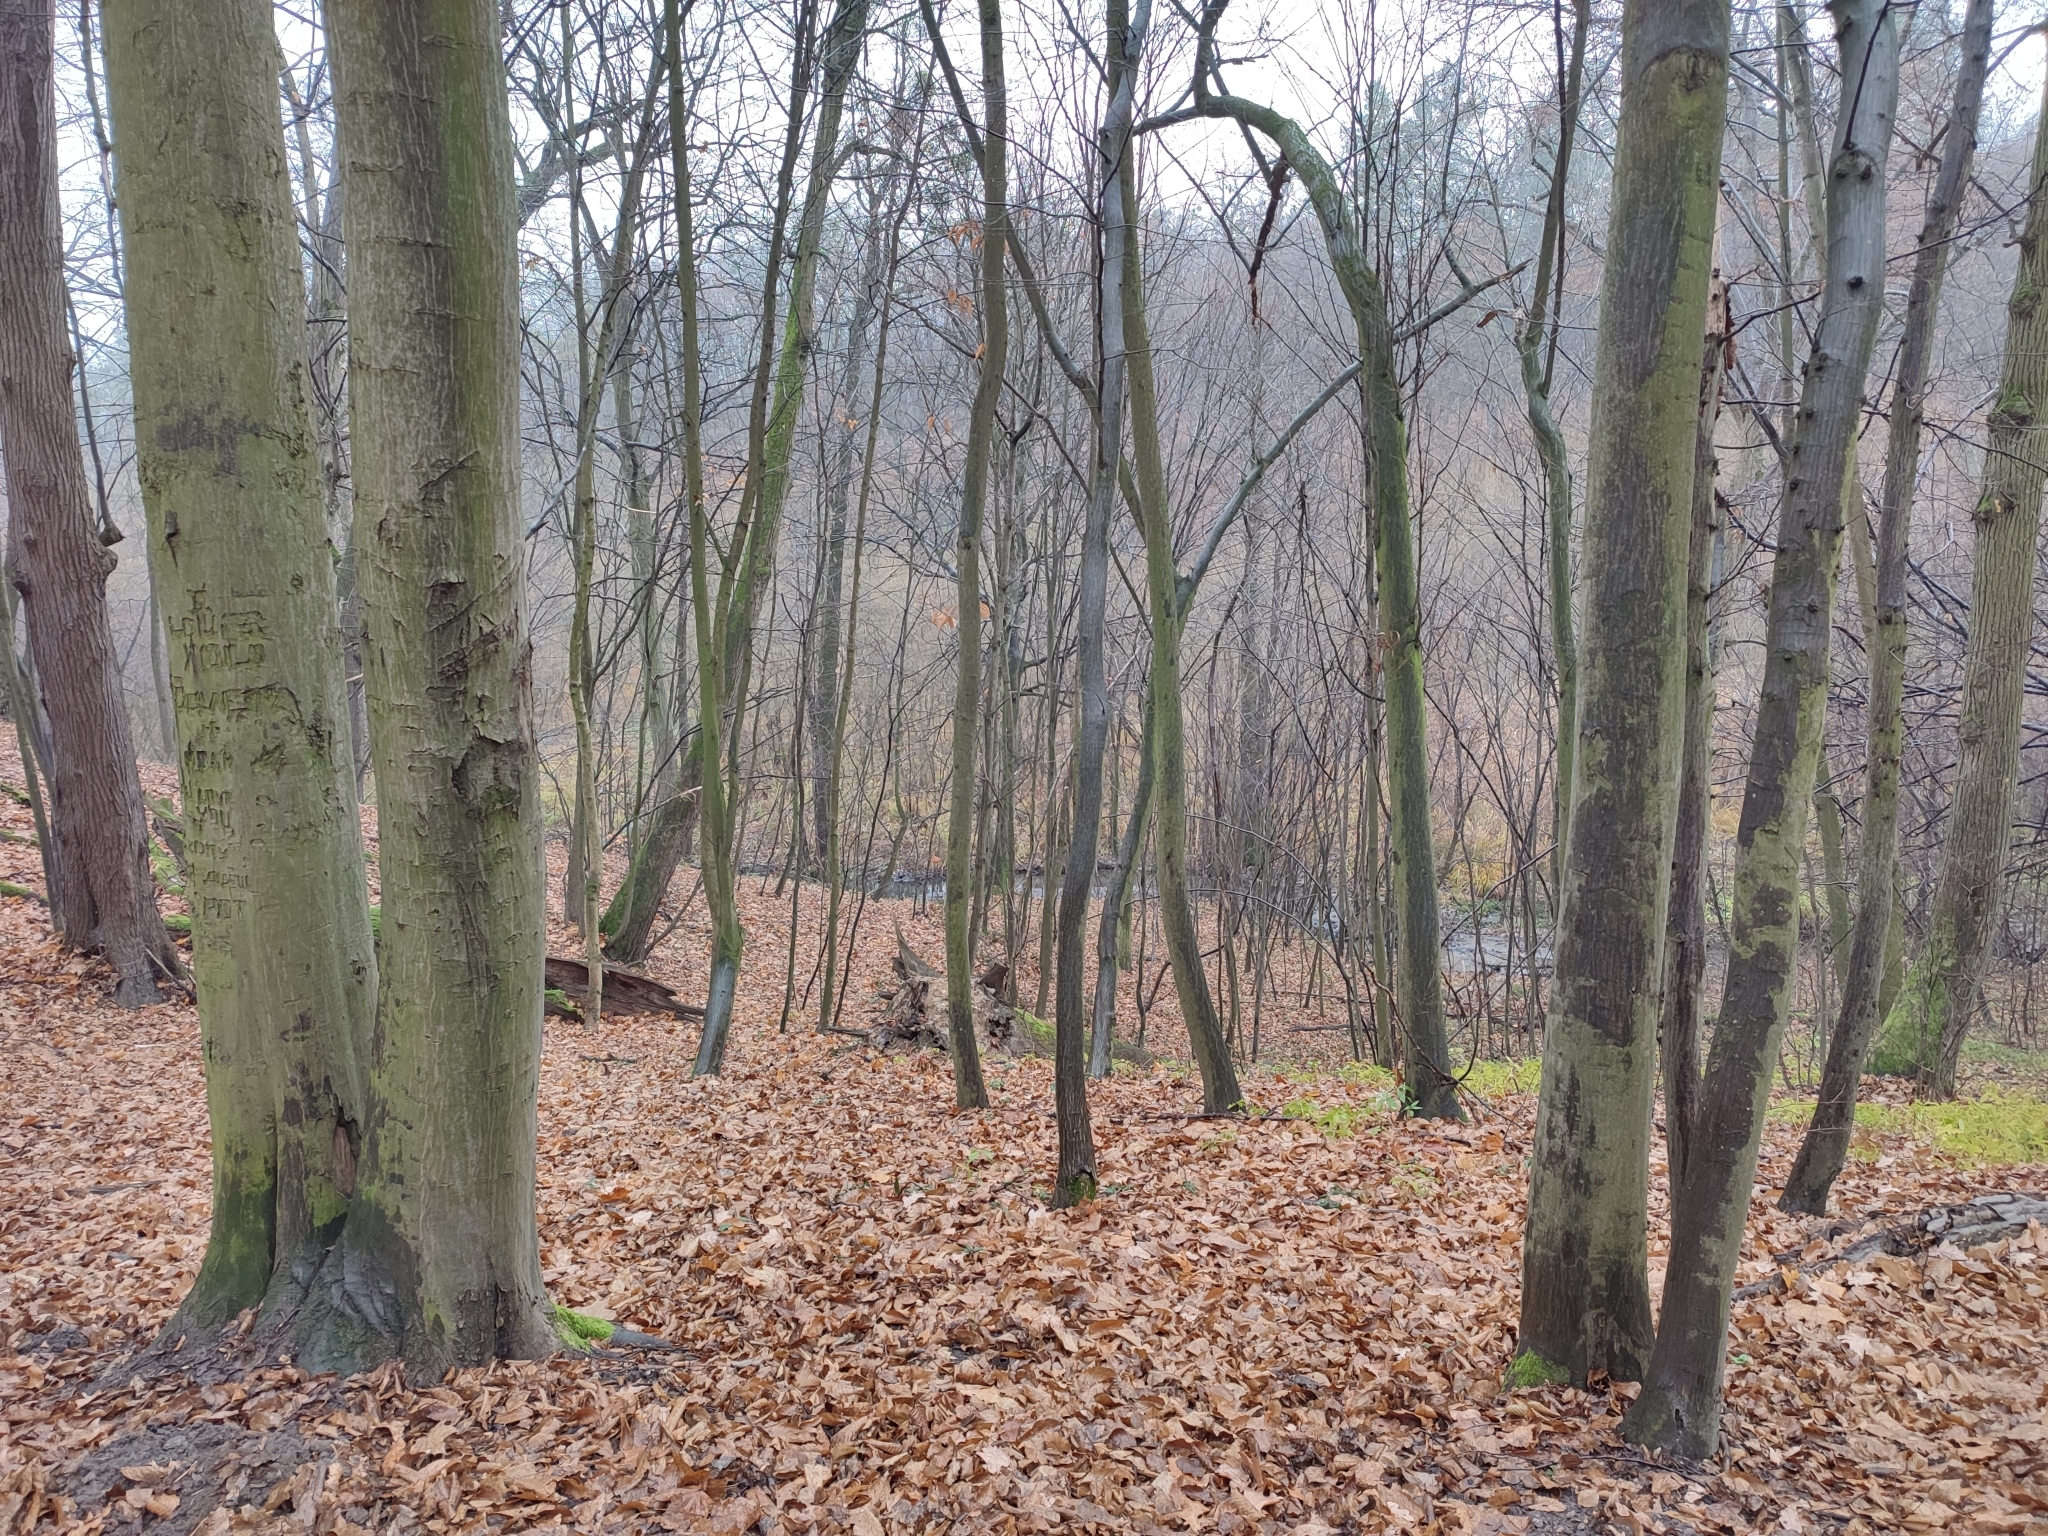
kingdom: Plantae
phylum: Tracheophyta
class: Magnoliopsida
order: Fagales
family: Betulaceae
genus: Carpinus
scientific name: Carpinus betulus
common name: Hornbeam
